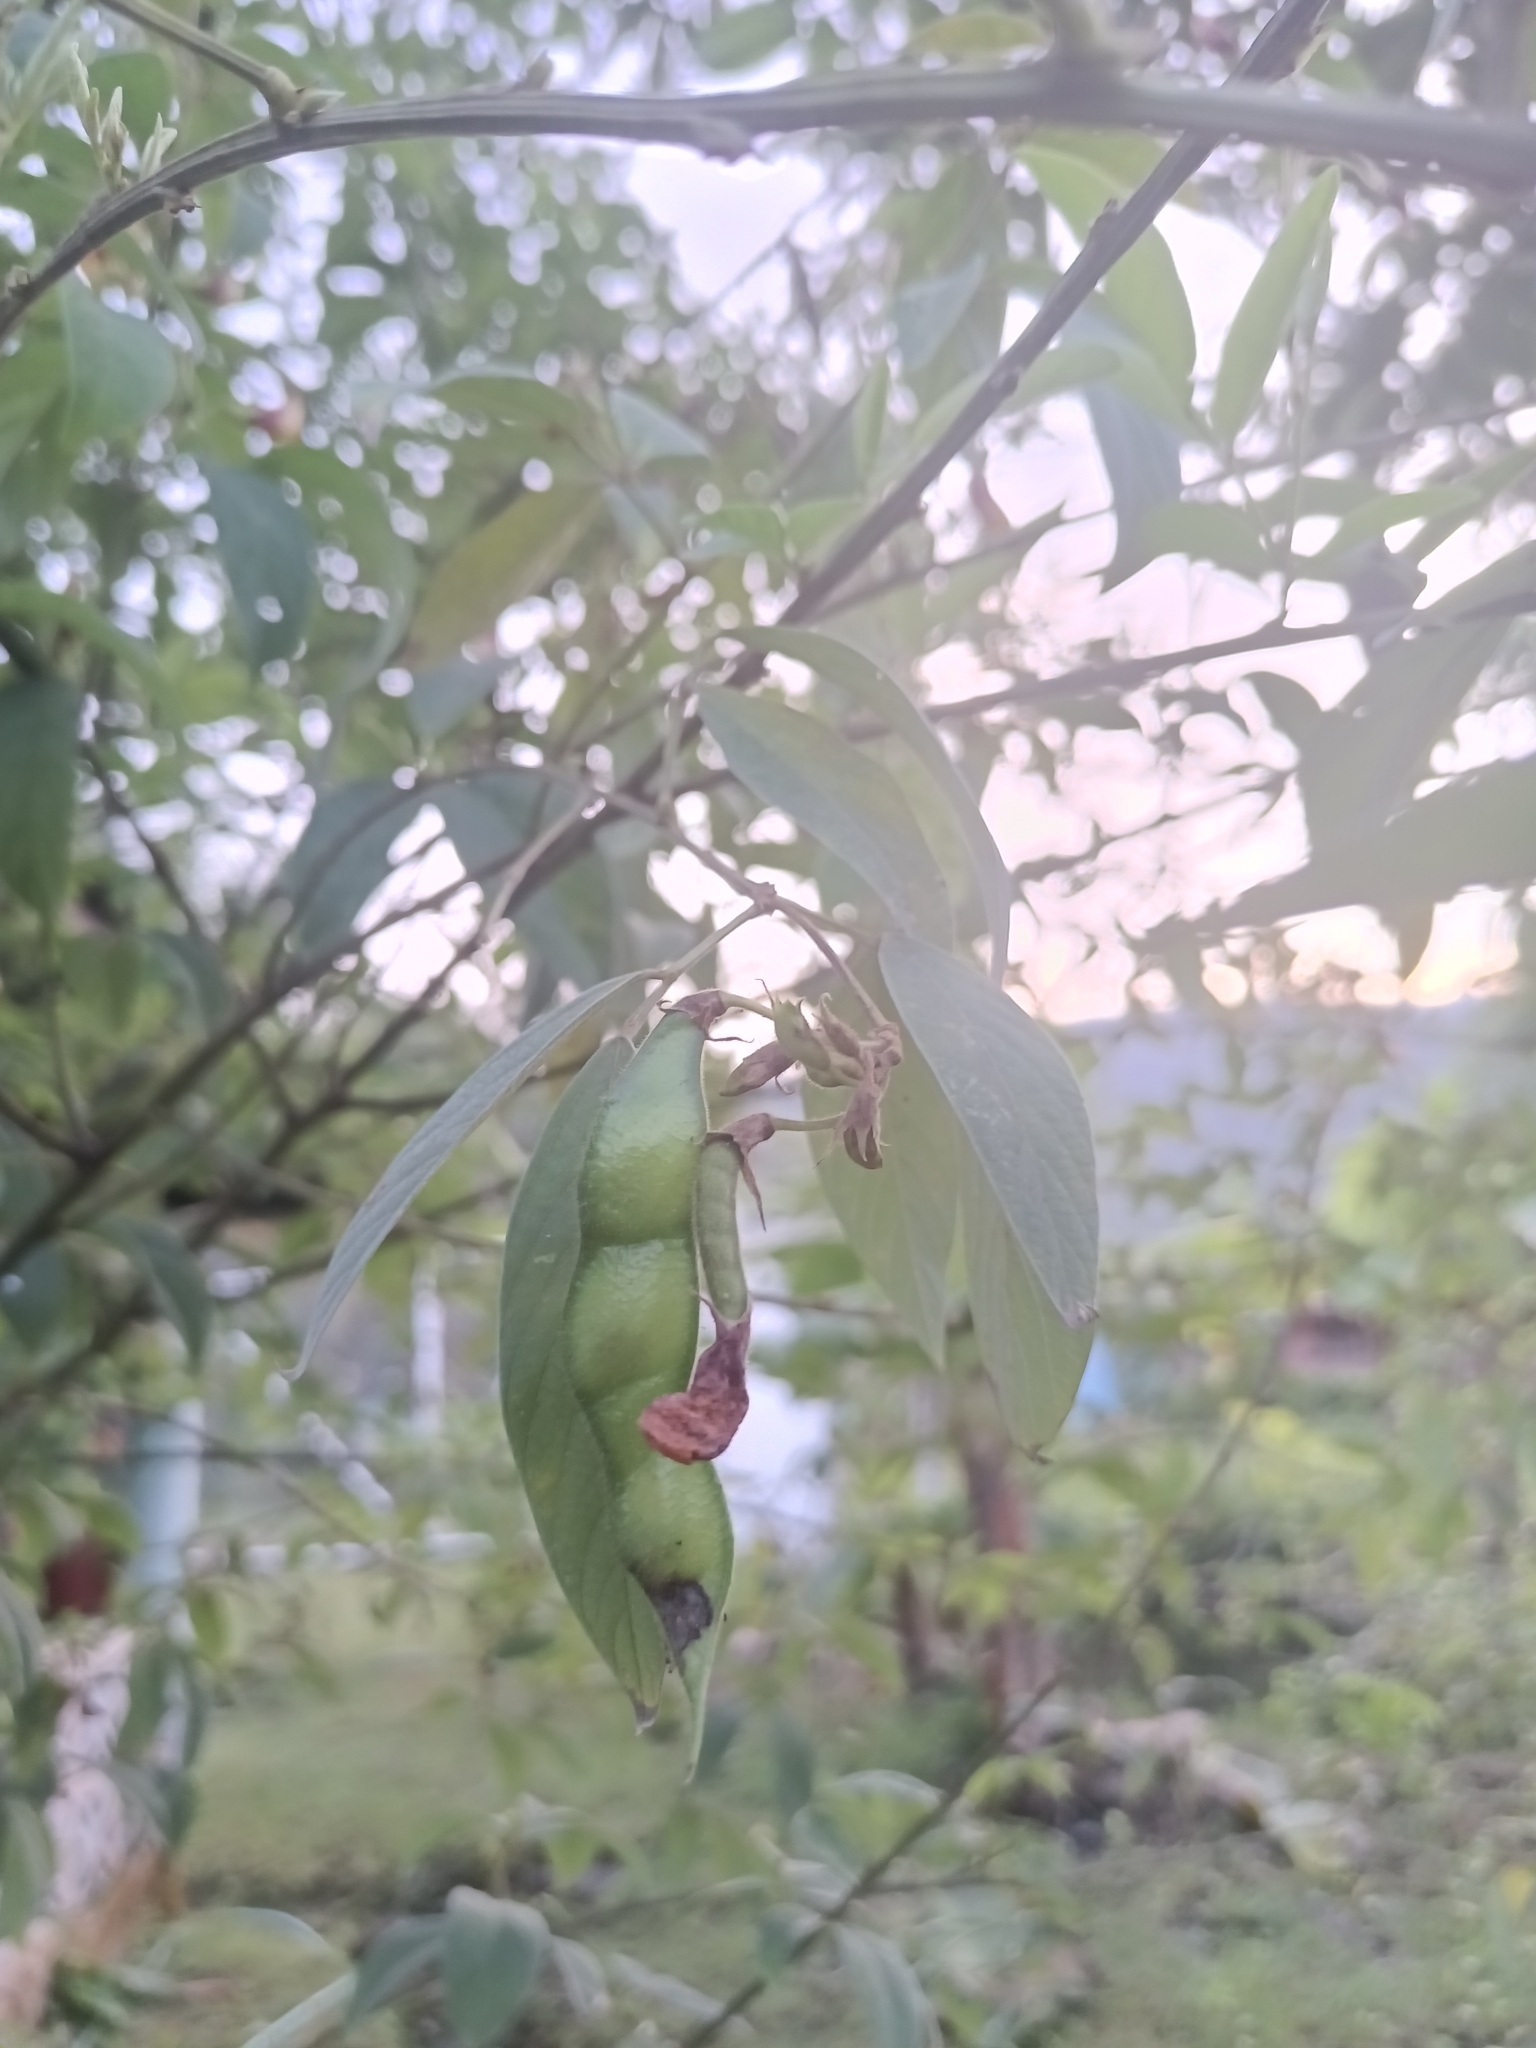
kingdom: Plantae
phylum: Tracheophyta
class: Magnoliopsida
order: Fabales
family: Fabaceae
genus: Cajanus
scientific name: Cajanus cajan
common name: Pigeonpea
